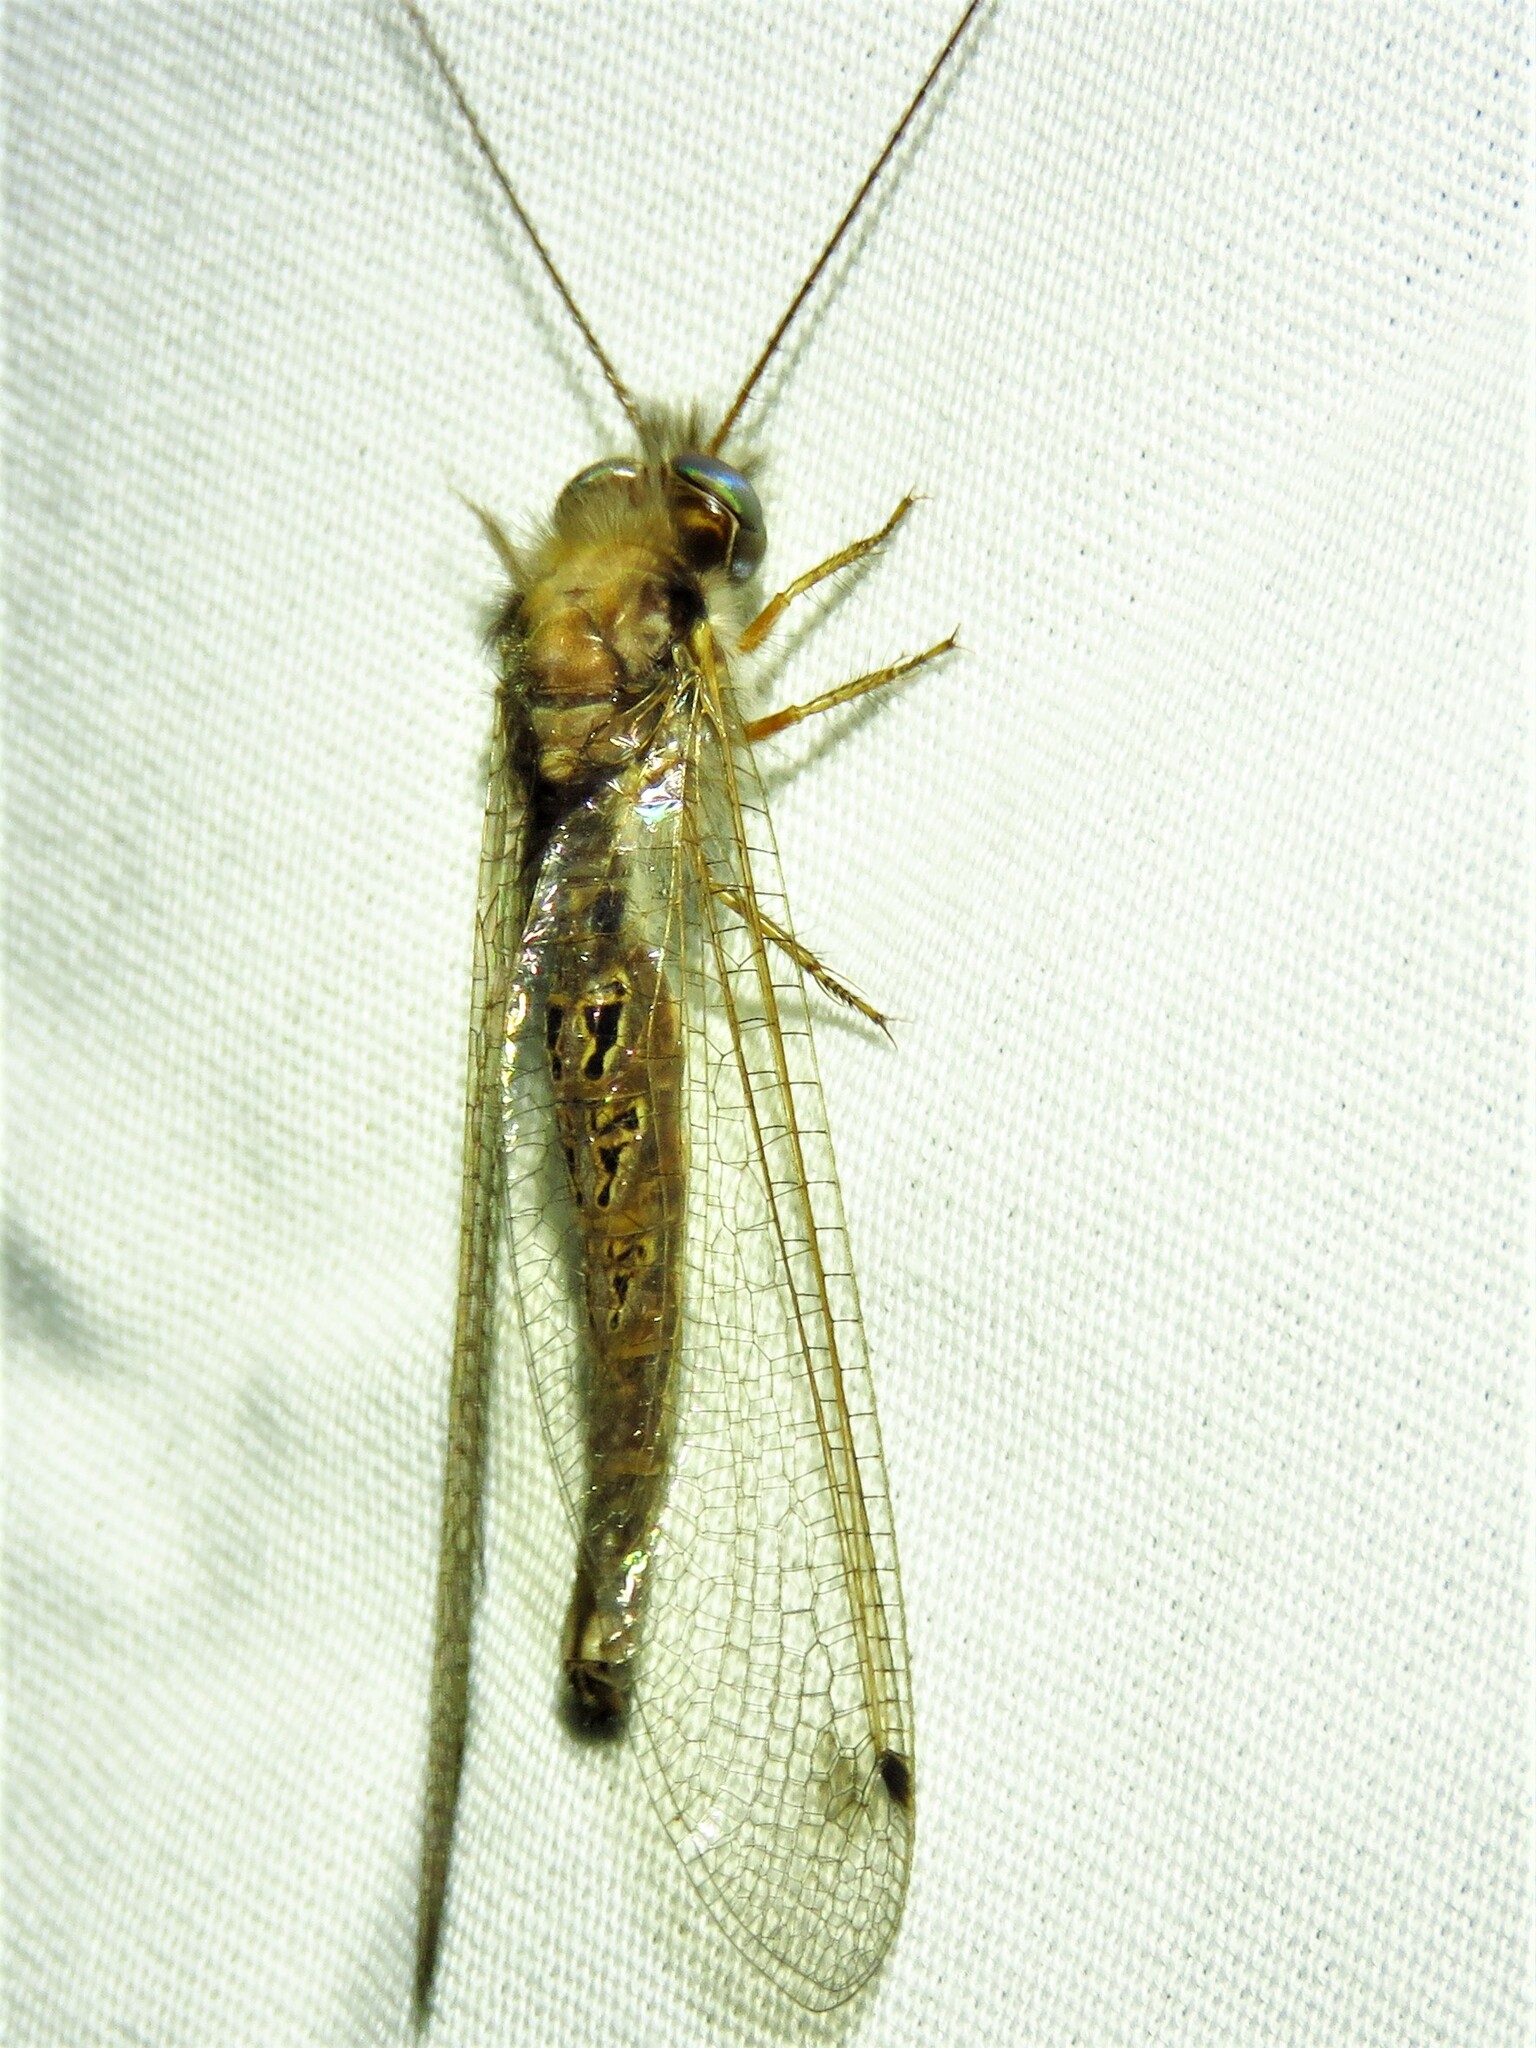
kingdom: Animalia
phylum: Arthropoda
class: Insecta
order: Neuroptera
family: Ascalaphidae
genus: Ululodes
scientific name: Ululodes macleayanus
